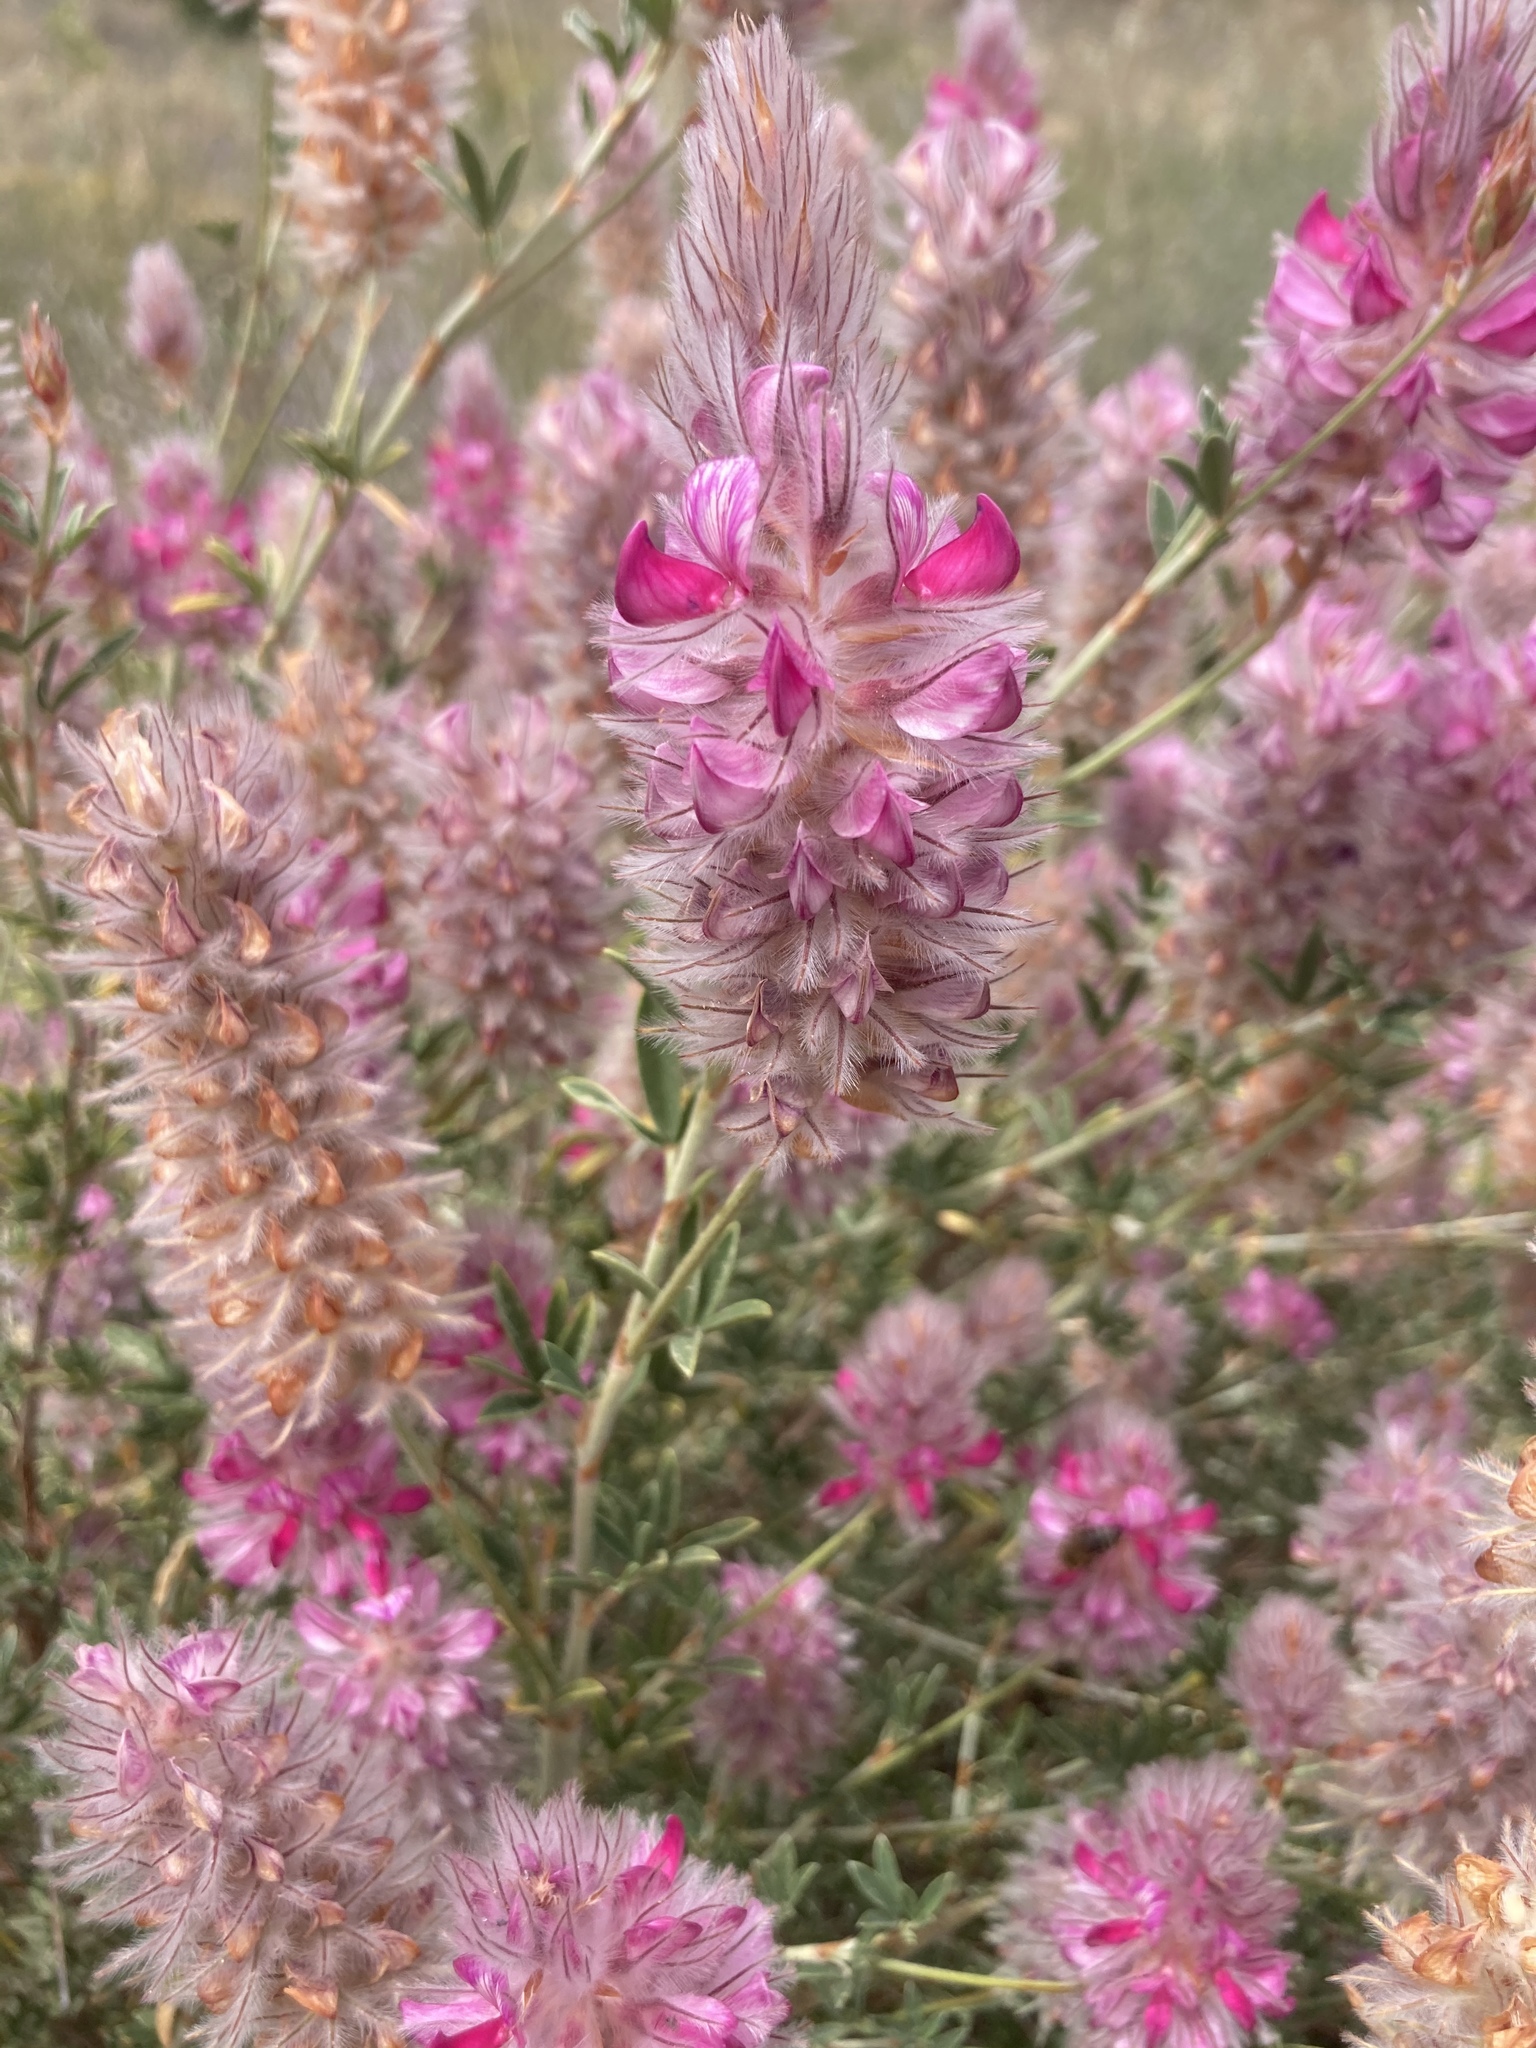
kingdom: Plantae
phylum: Tracheophyta
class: Magnoliopsida
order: Fabales
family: Fabaceae
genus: Ebenus
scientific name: Ebenus cretica
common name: Cretan silver bush
